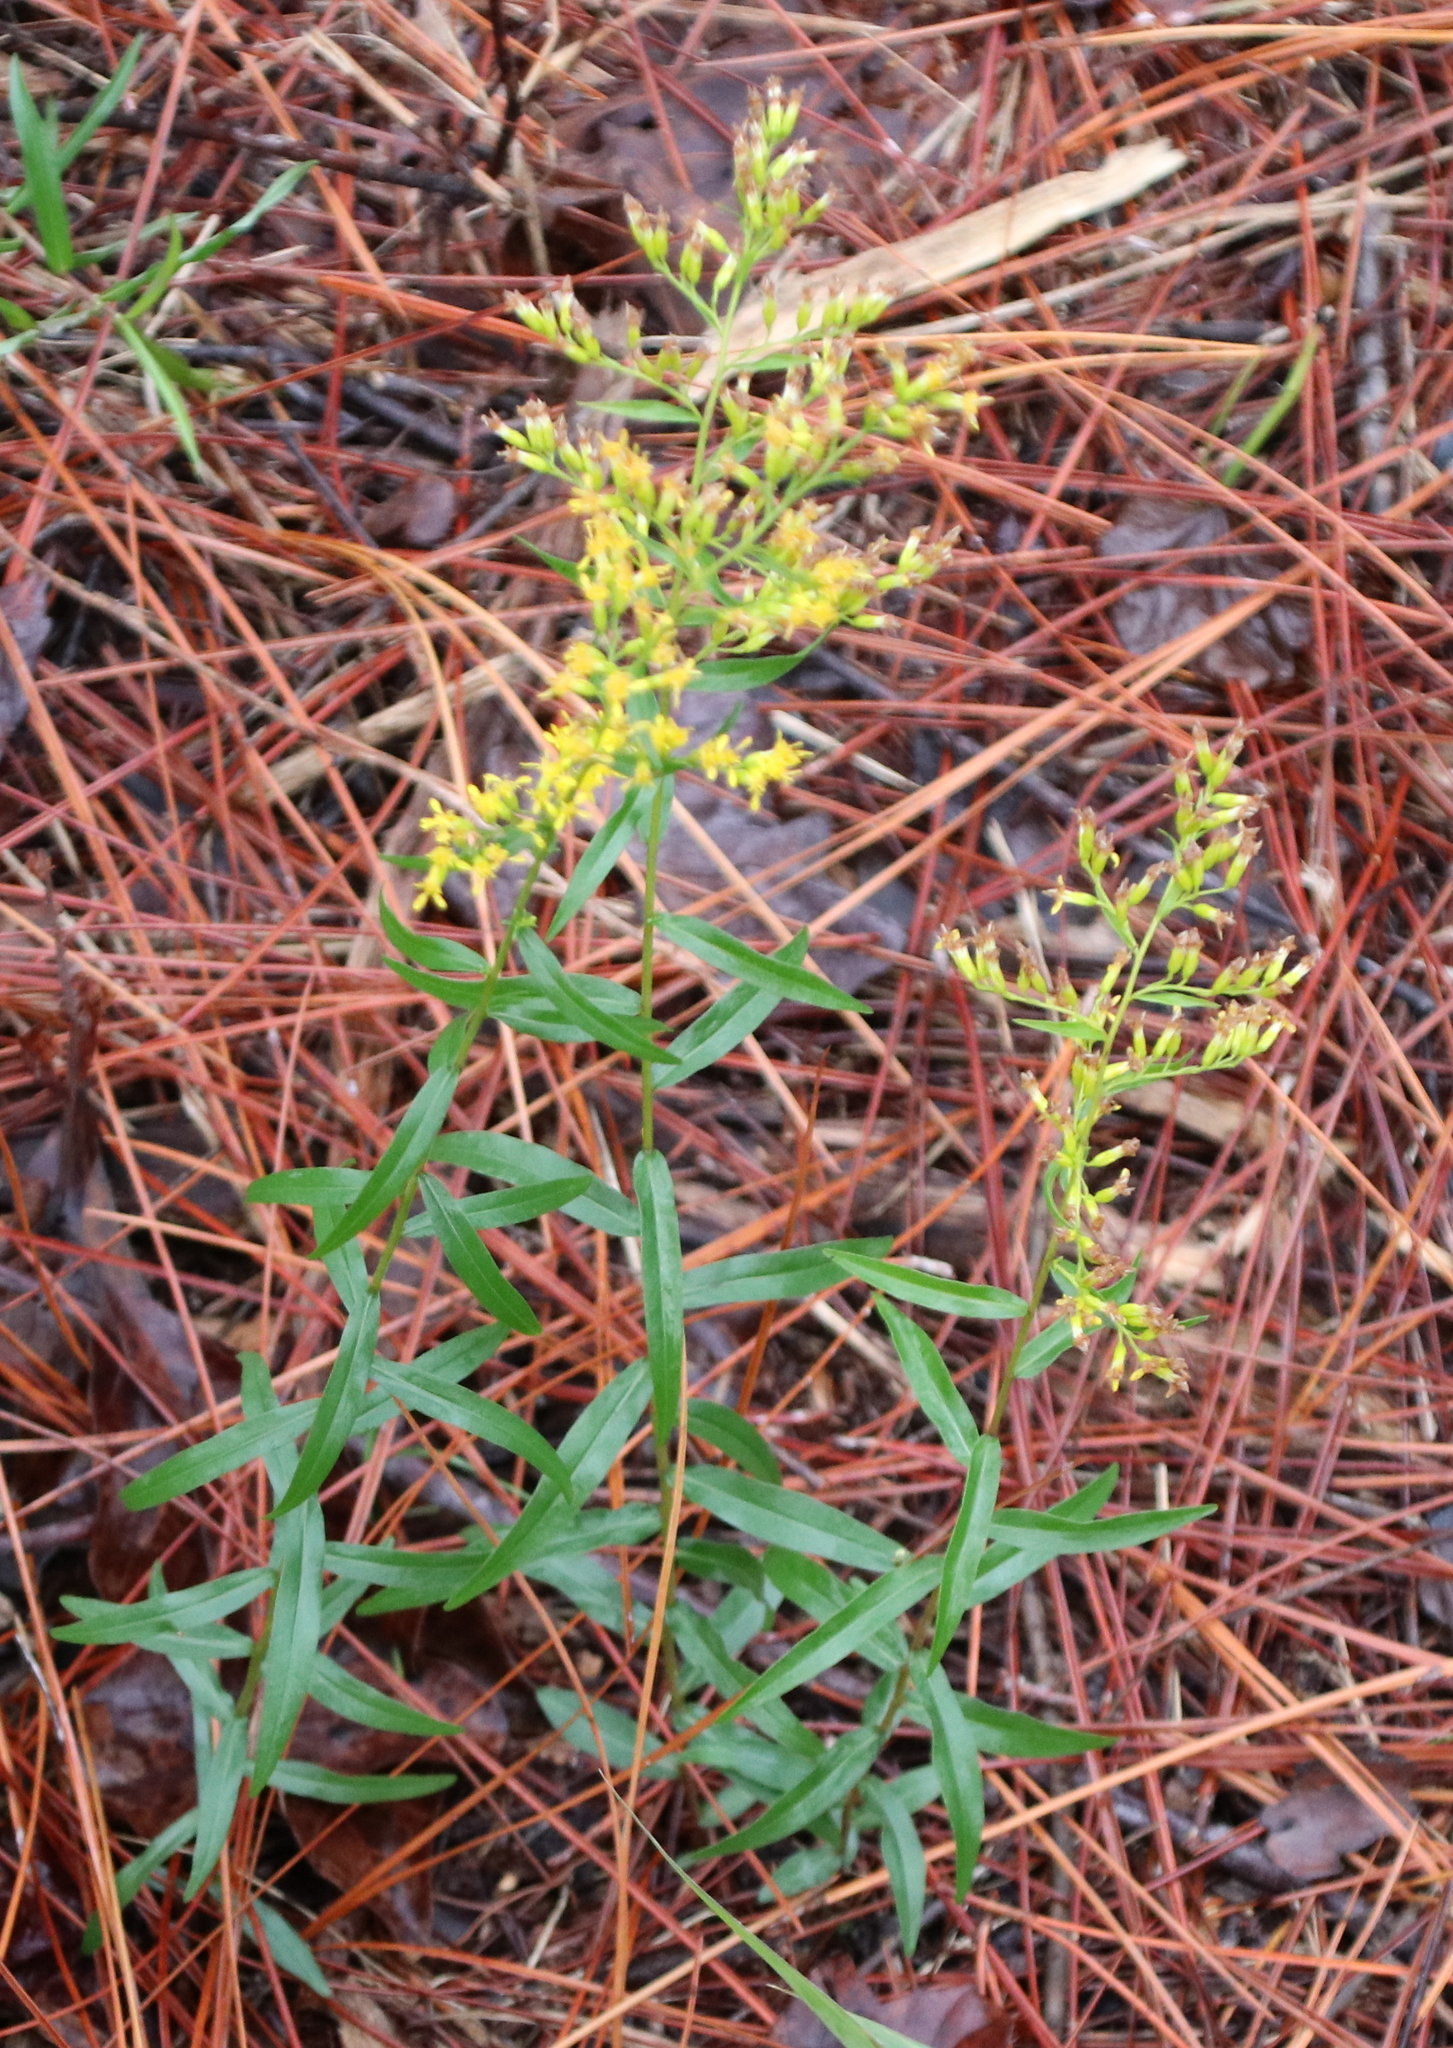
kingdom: Plantae
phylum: Tracheophyta
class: Magnoliopsida
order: Asterales
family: Asteraceae
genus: Solidago
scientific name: Solidago odora
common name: Anise-scented goldenrod
